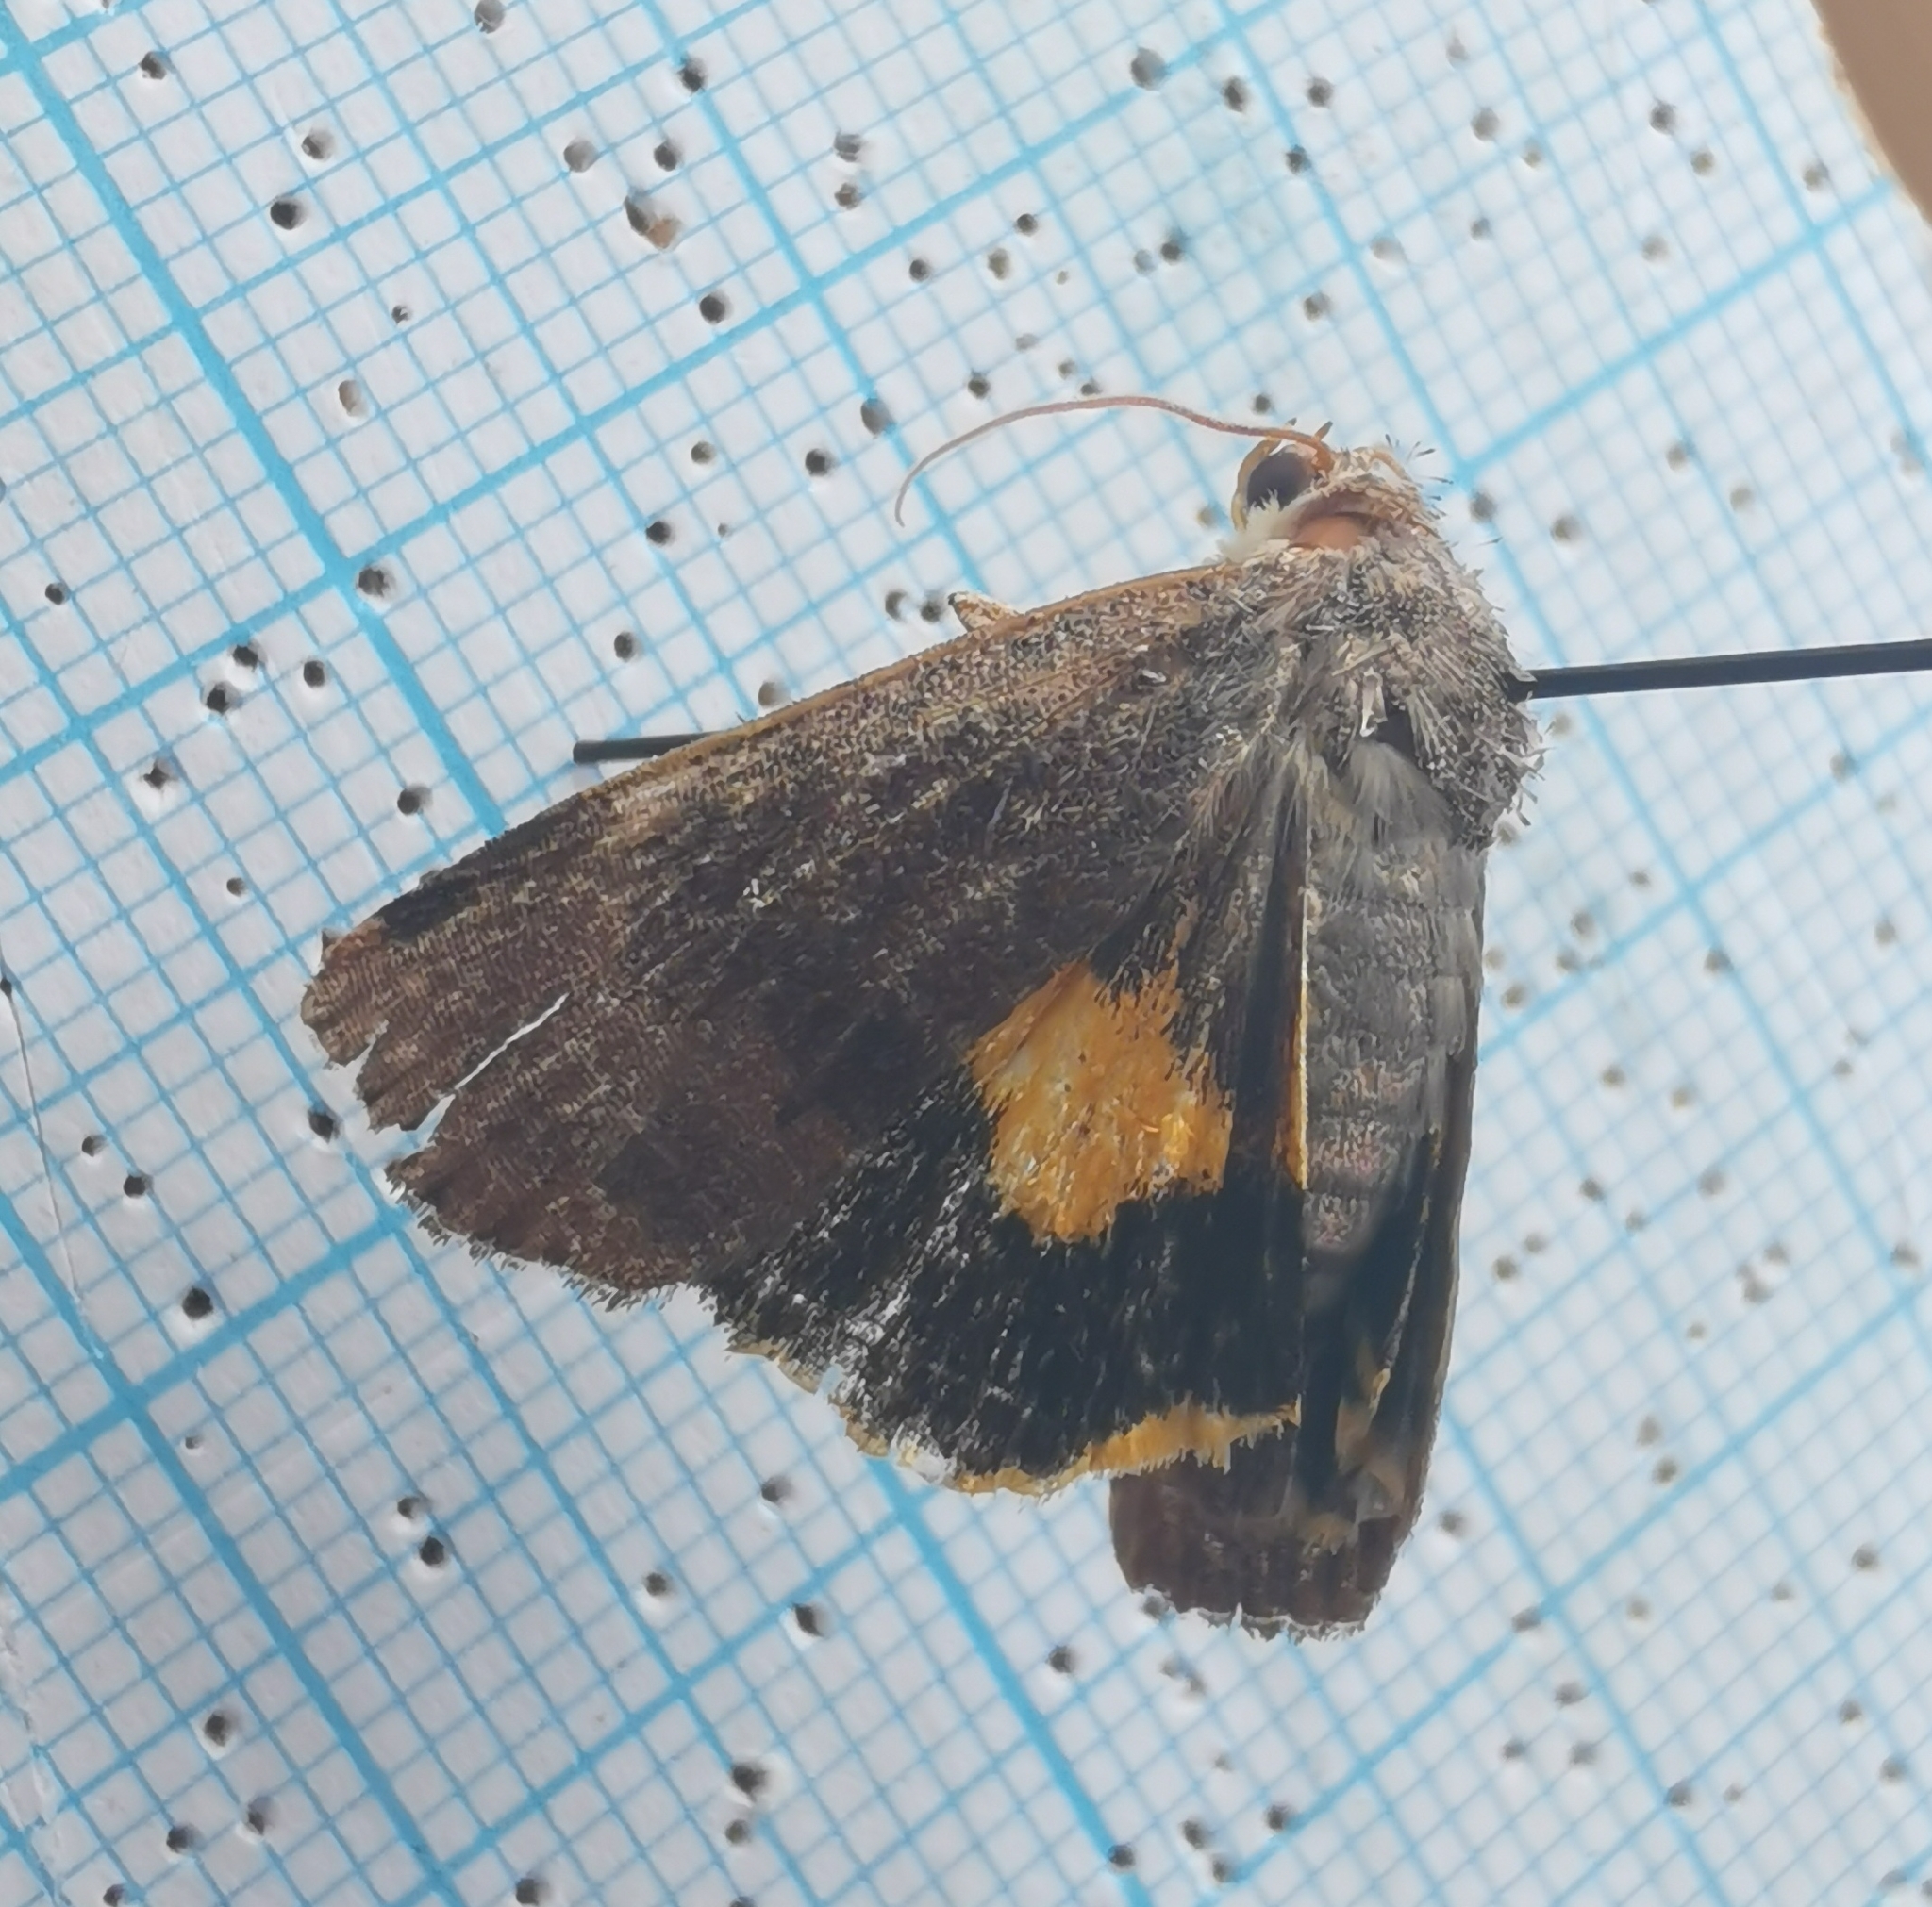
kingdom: Animalia
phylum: Arthropoda
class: Insecta
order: Lepidoptera
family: Noctuidae
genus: Noctua
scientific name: Noctua janthina
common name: Langmaid's yellow underwing
